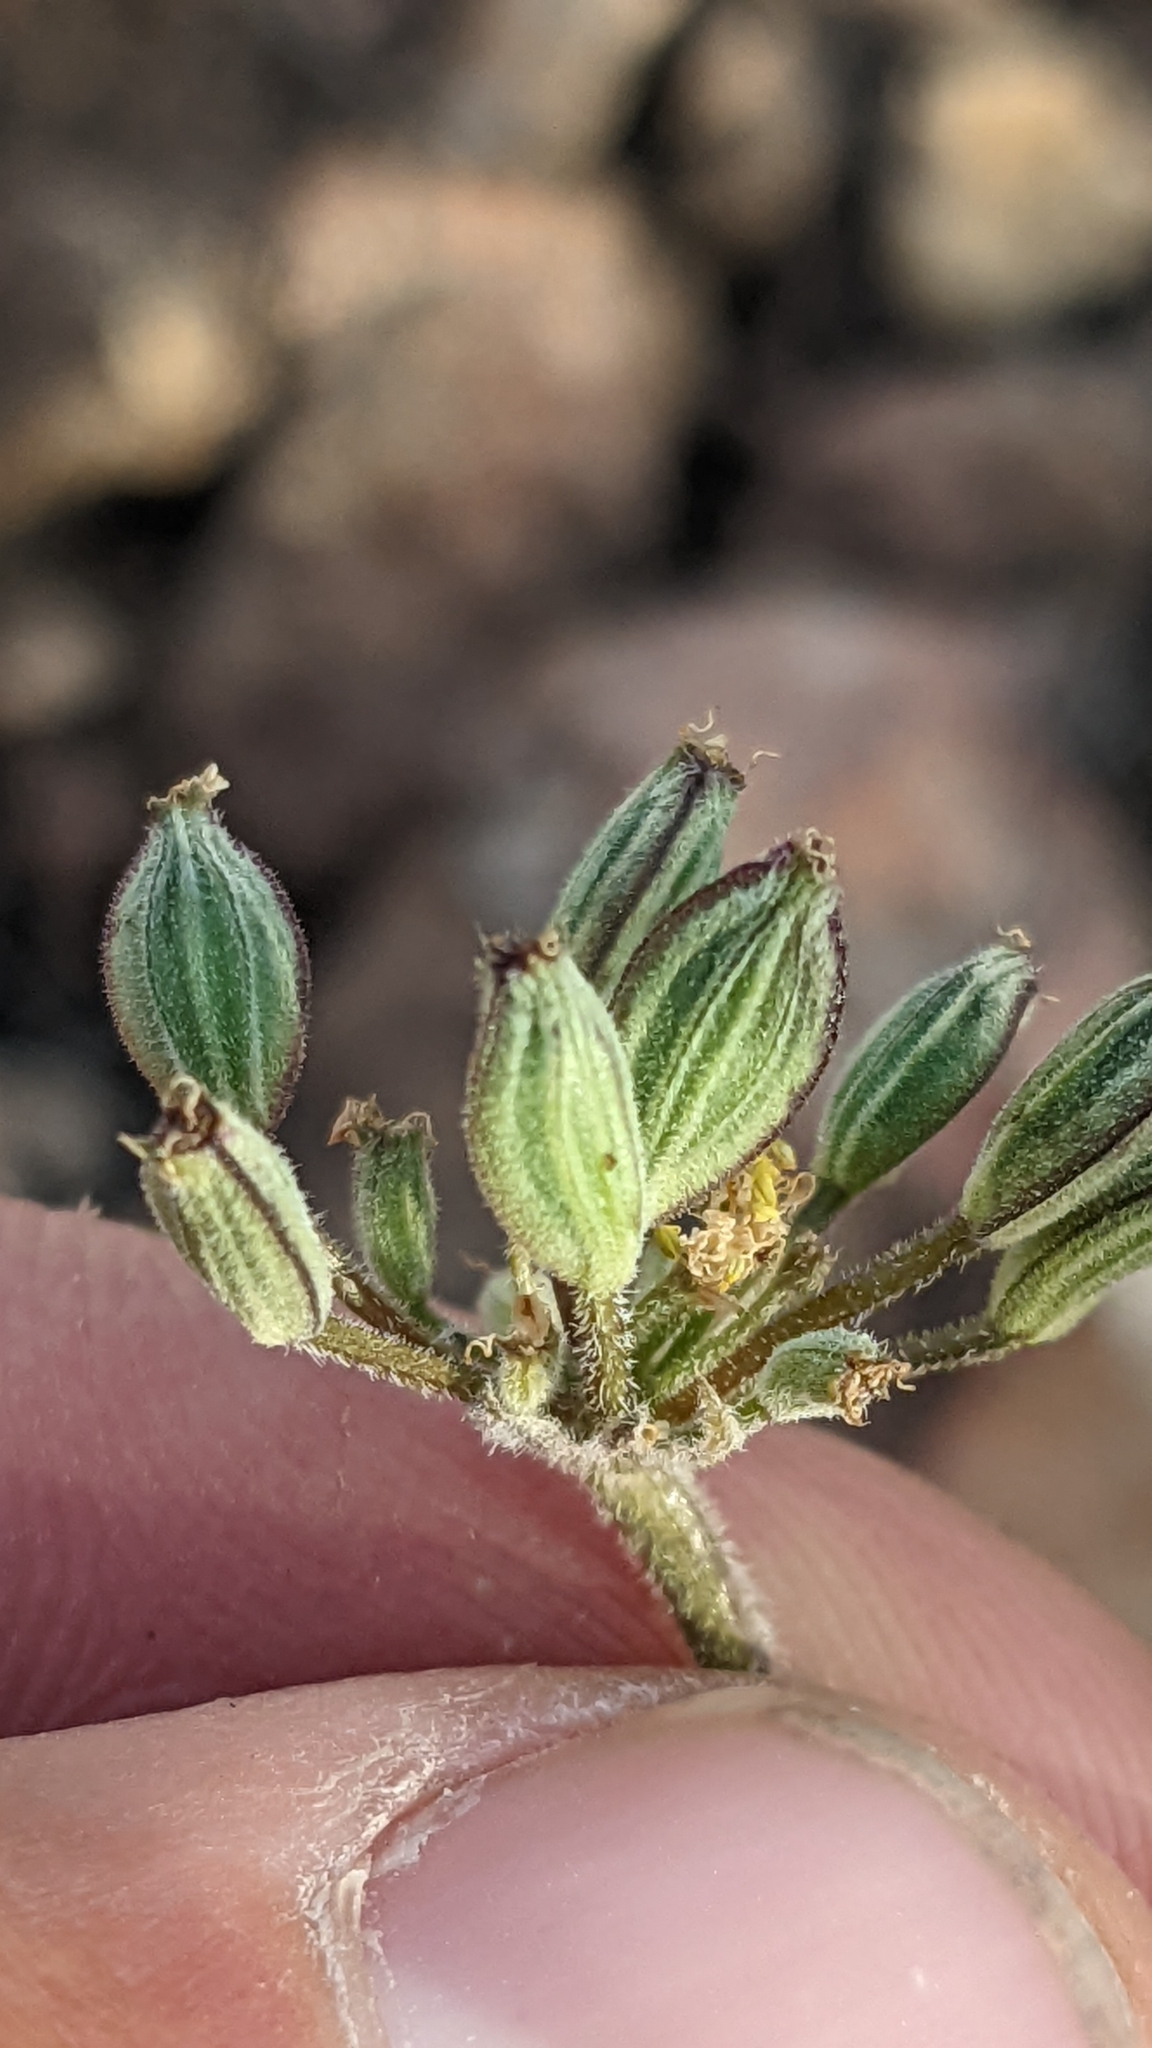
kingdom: Plantae
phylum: Tracheophyta
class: Magnoliopsida
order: Apiales
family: Apiaceae
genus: Lomatium
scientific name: Lomatium foeniculaceum
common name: Desert-parsley
